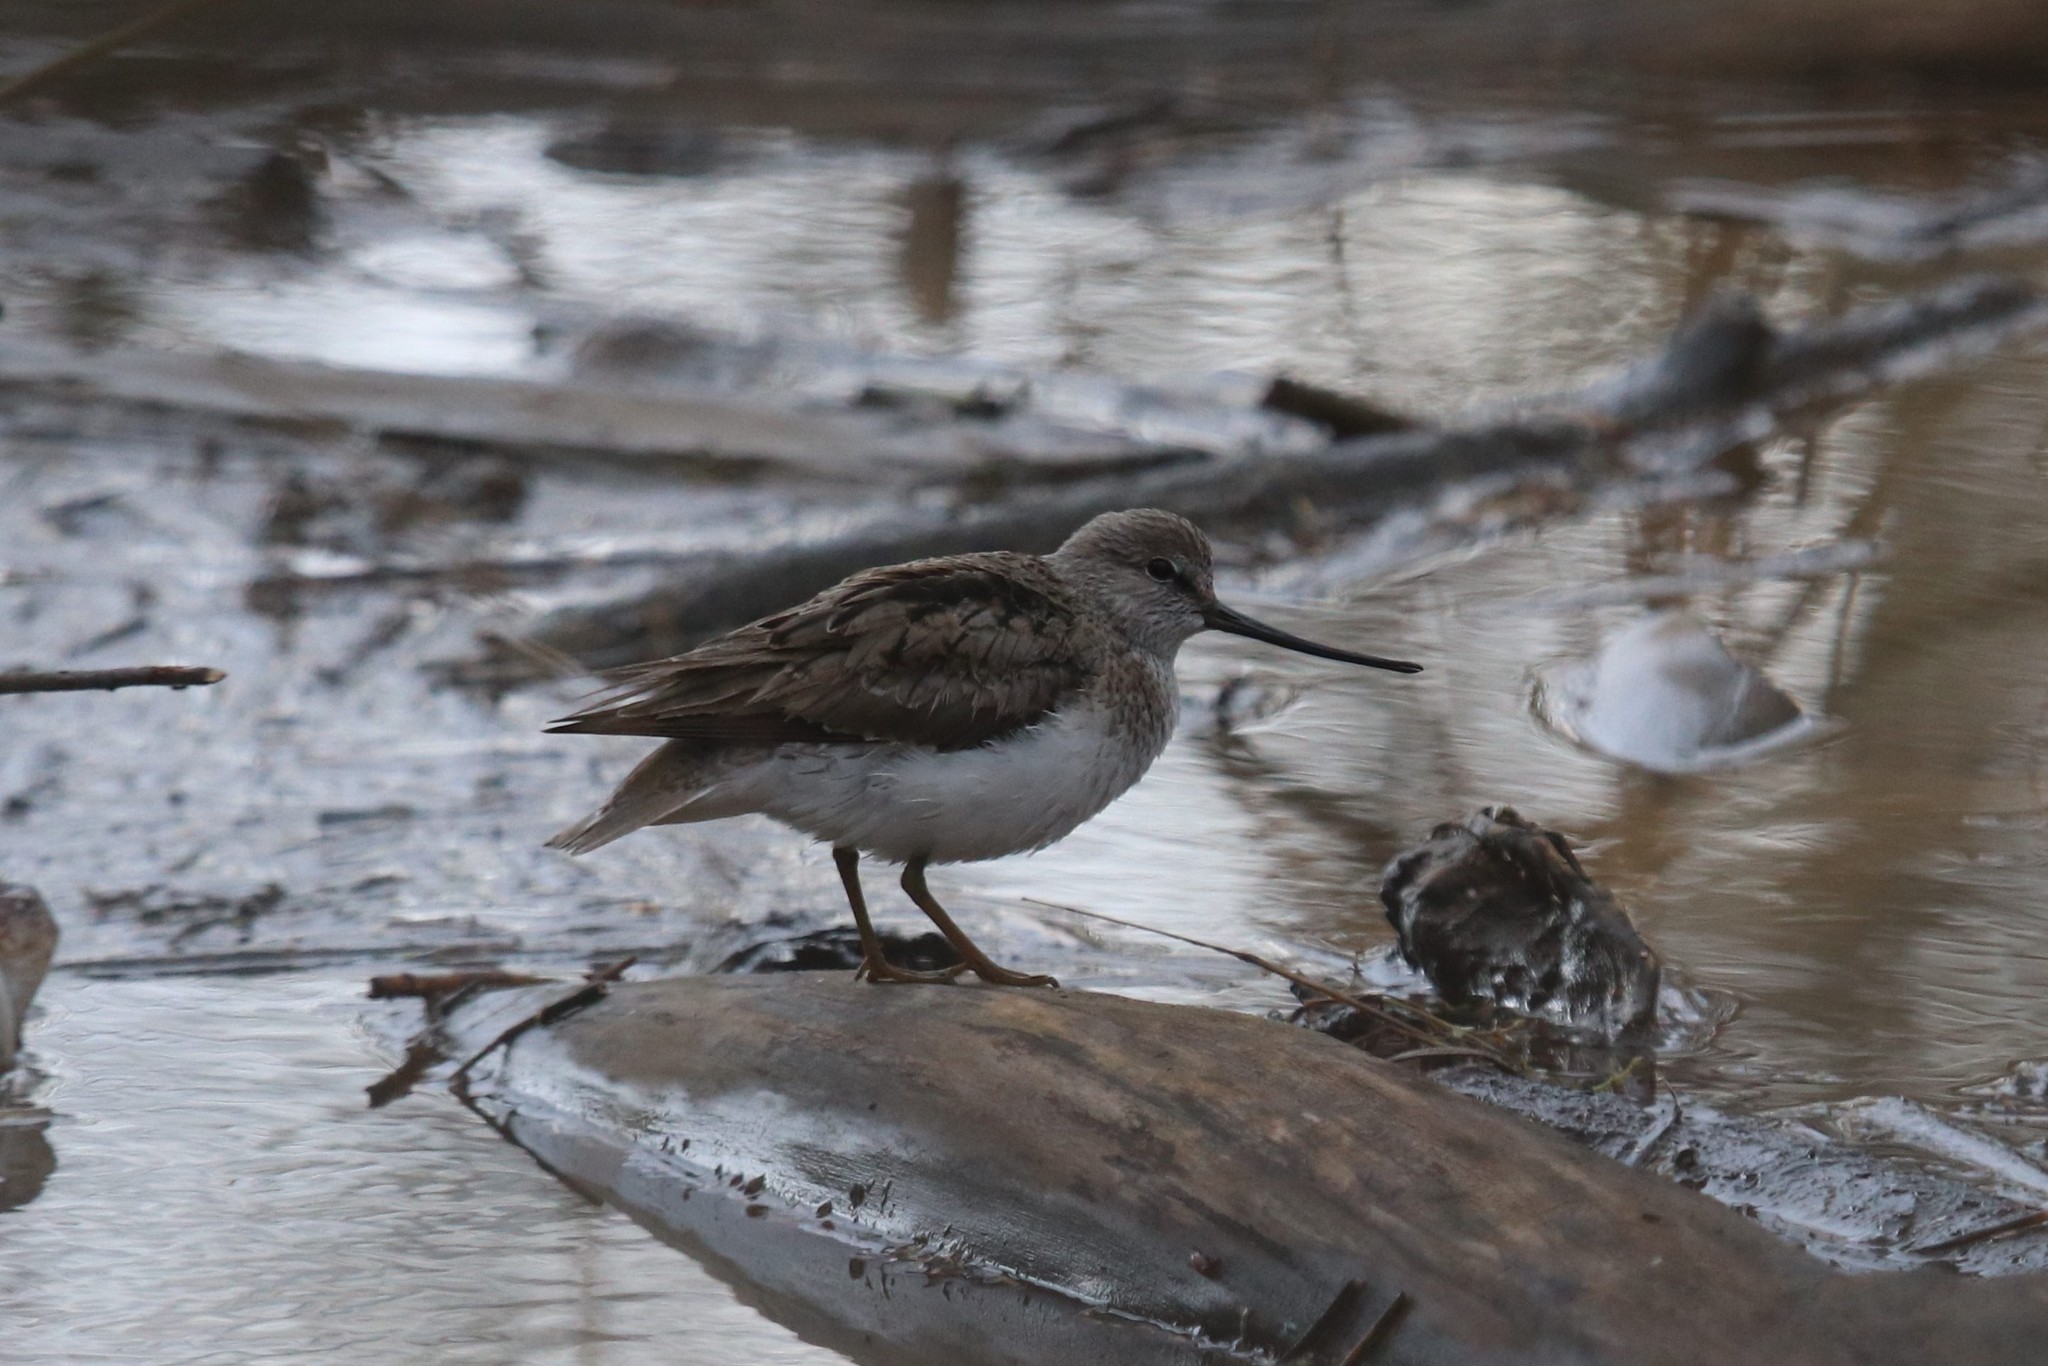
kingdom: Animalia
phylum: Chordata
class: Aves
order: Charadriiformes
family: Scolopacidae
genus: Xenus
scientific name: Xenus cinereus
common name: Terek sandpiper
